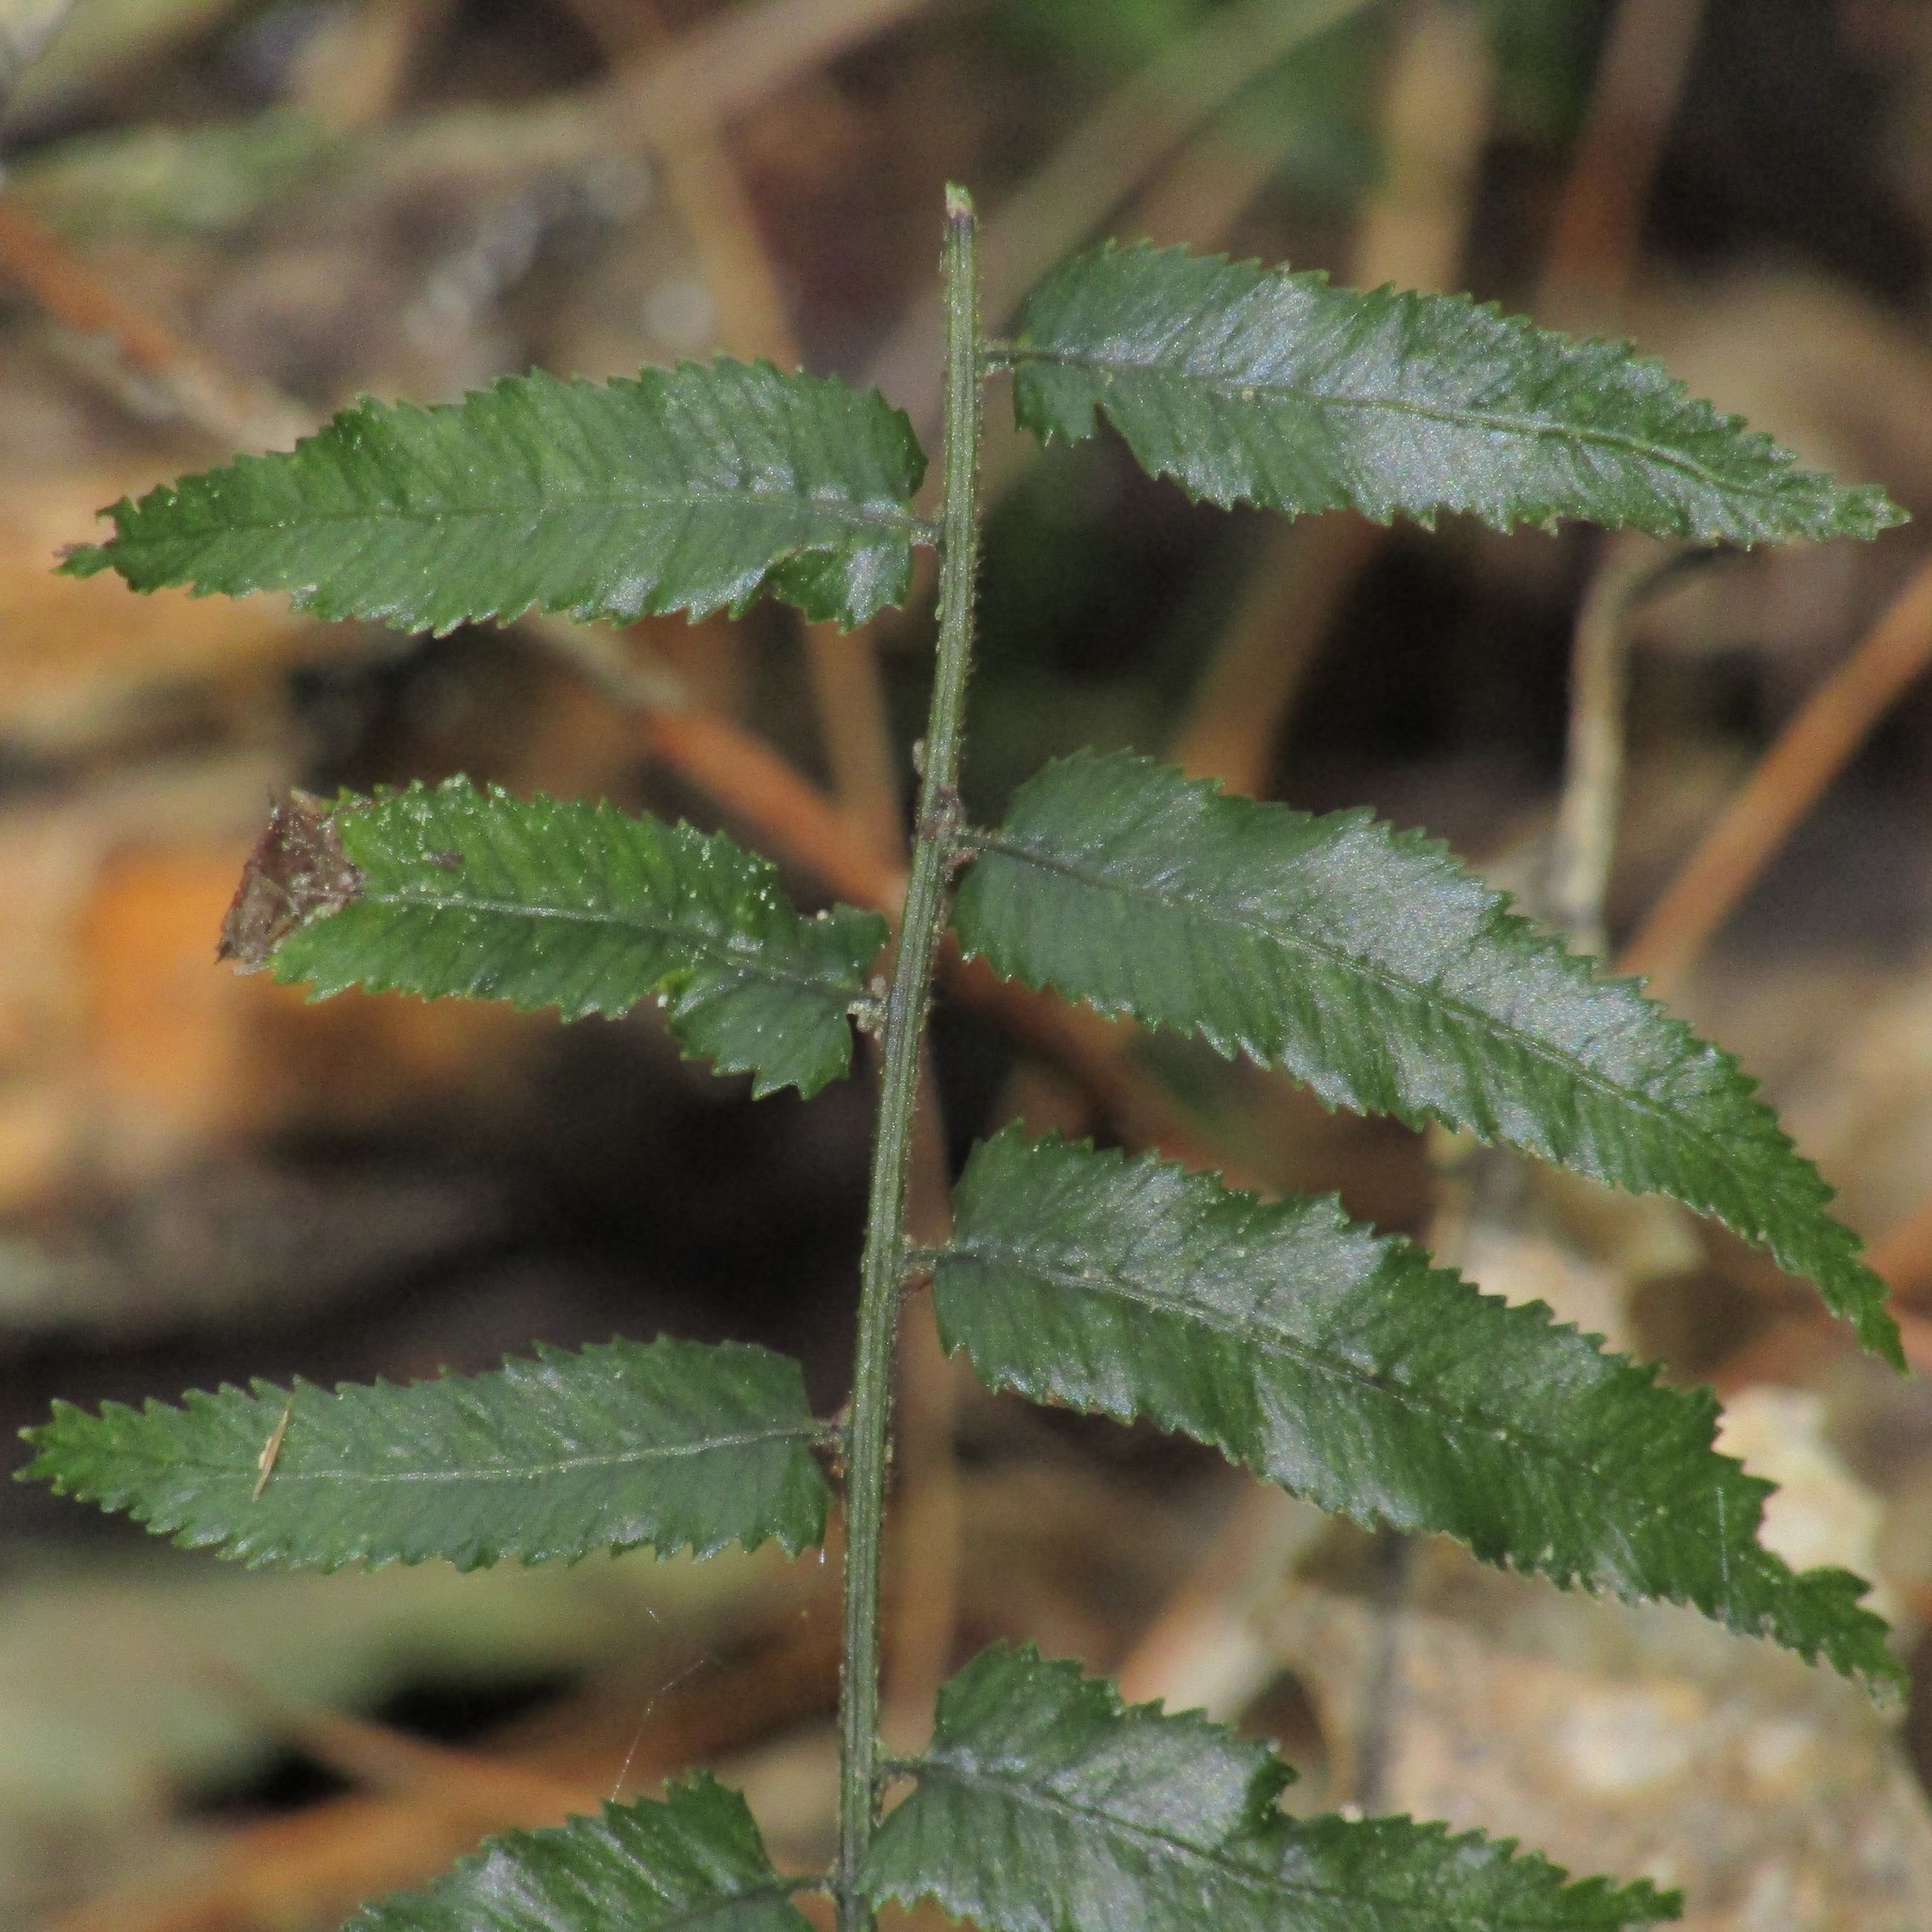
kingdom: Plantae
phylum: Tracheophyta
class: Polypodiopsida
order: Polypodiales
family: Blechnaceae
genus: Icarus
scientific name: Icarus filiformis
